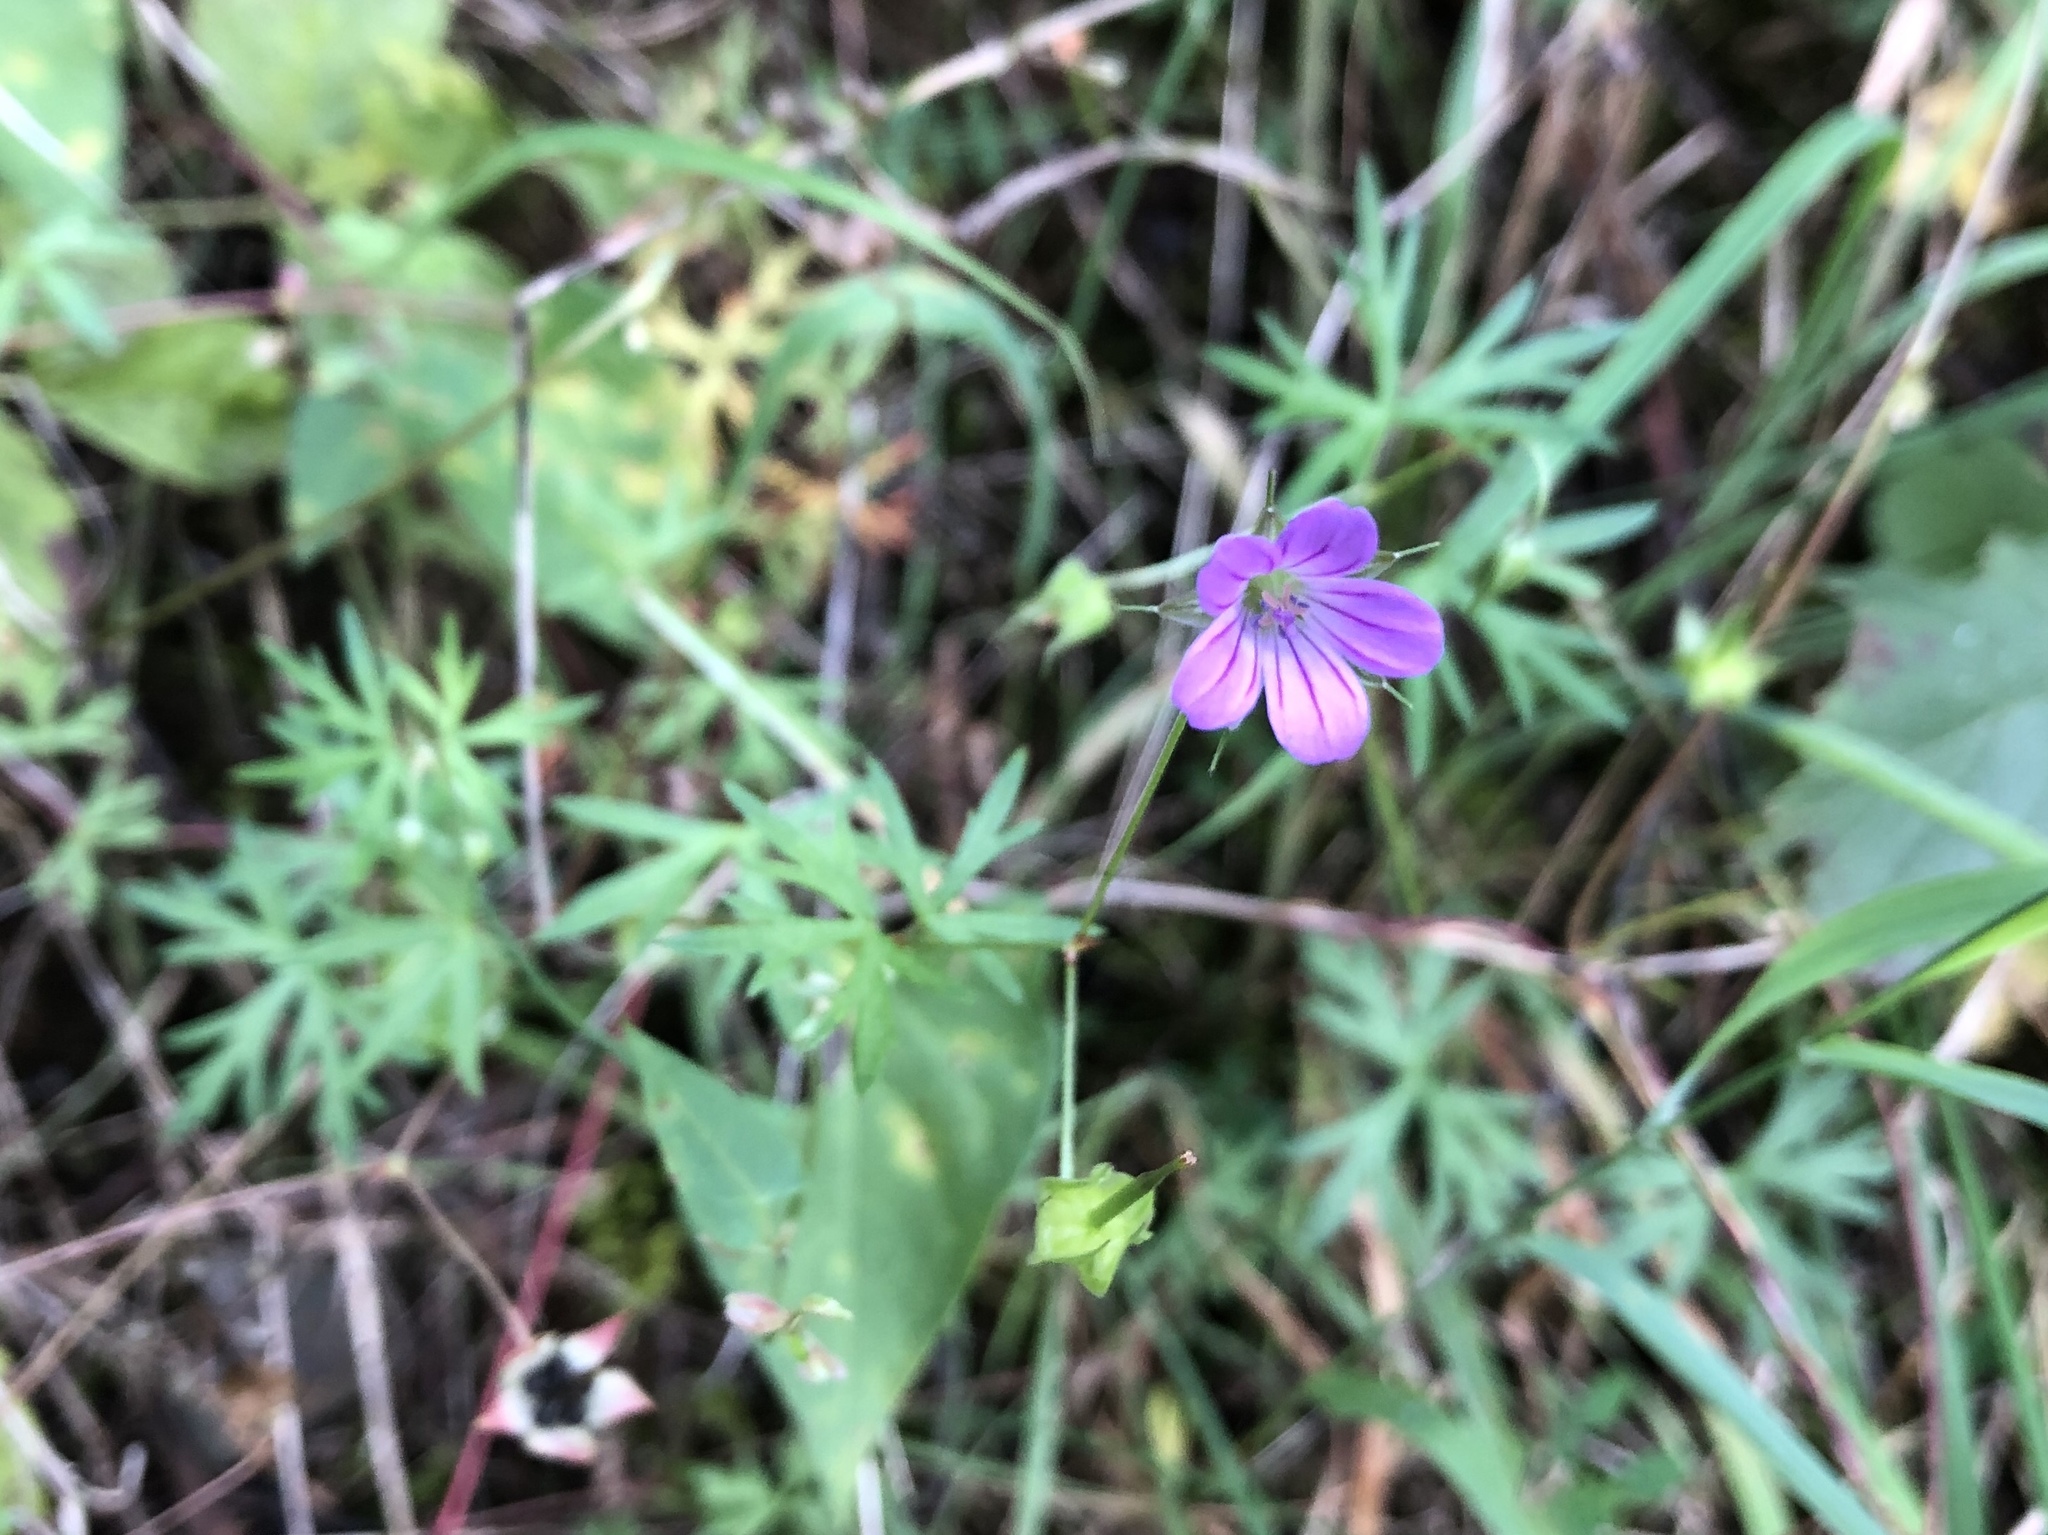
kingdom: Plantae
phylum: Tracheophyta
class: Magnoliopsida
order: Geraniales
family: Geraniaceae
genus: Geranium
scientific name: Geranium columbinum
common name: Long-stalked crane's-bill
